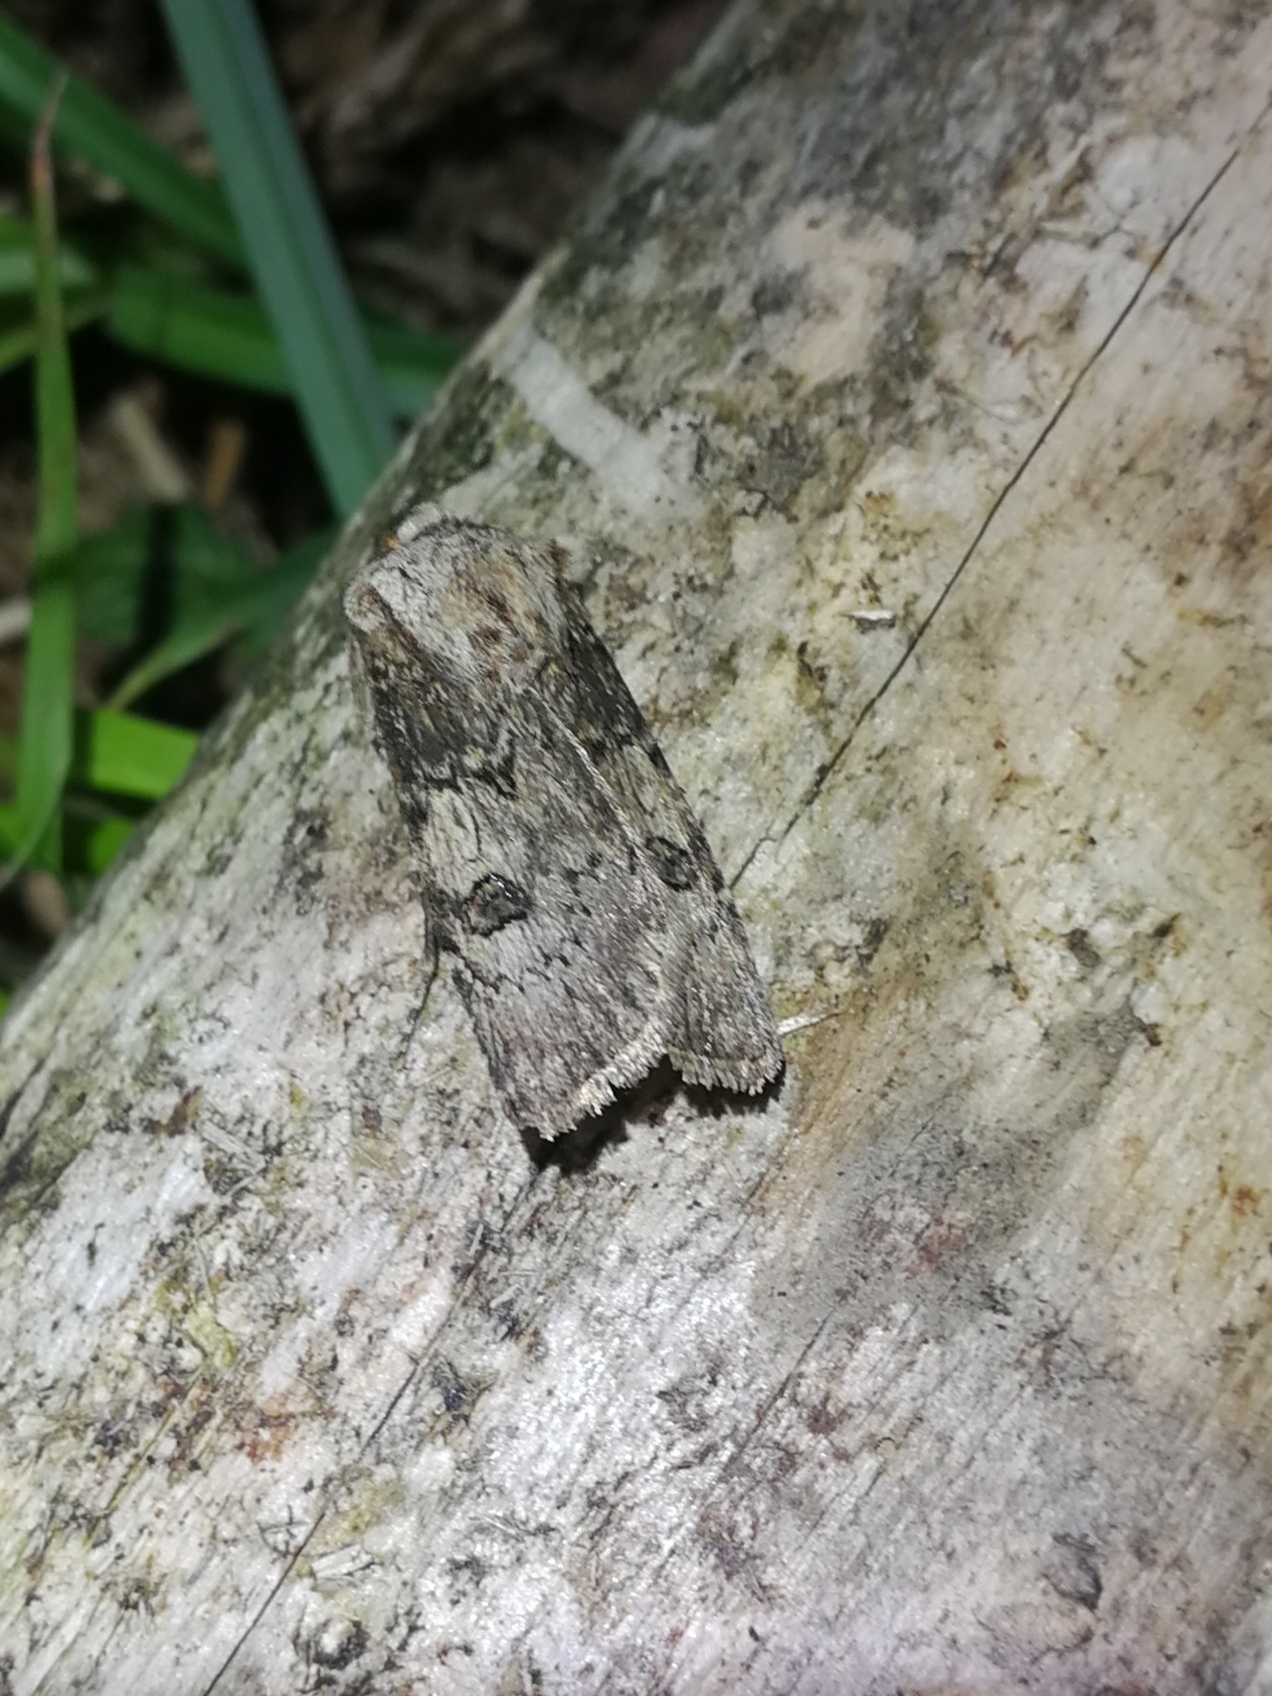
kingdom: Animalia
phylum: Arthropoda
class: Insecta
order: Lepidoptera
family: Noctuidae
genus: Agrotis
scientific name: Agrotis puta
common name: Shuttle-shaped dart
